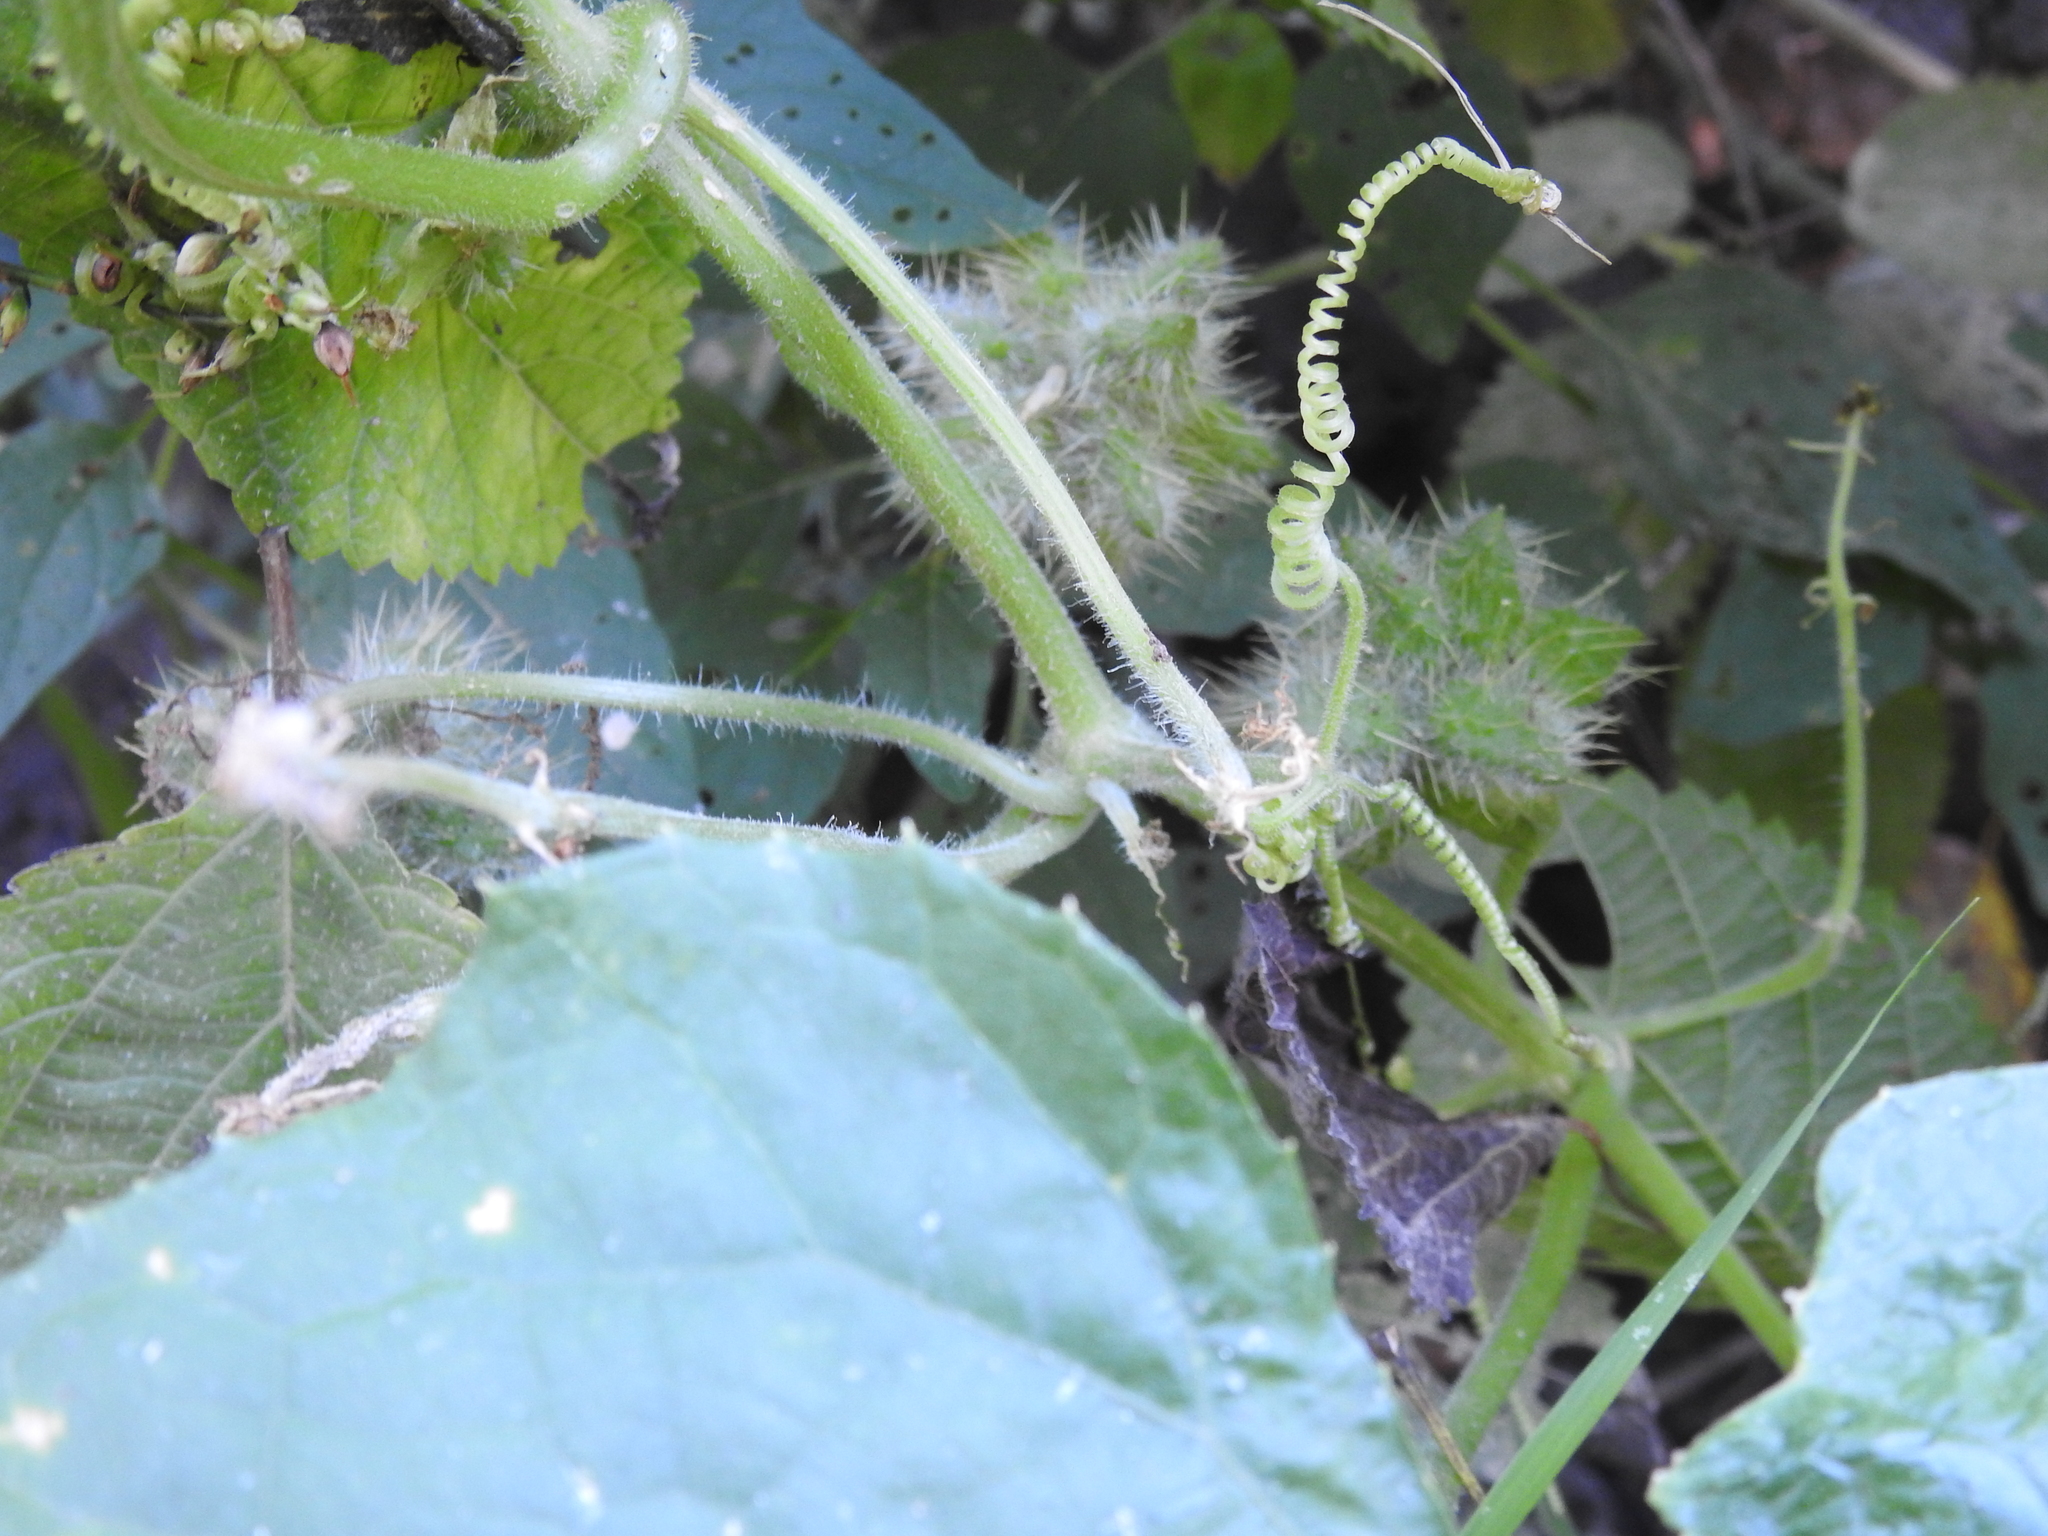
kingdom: Plantae
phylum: Tracheophyta
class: Magnoliopsida
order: Cucurbitales
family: Cucurbitaceae
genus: Sicyos
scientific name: Sicyos angulatus
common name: Angled burr cucumber
